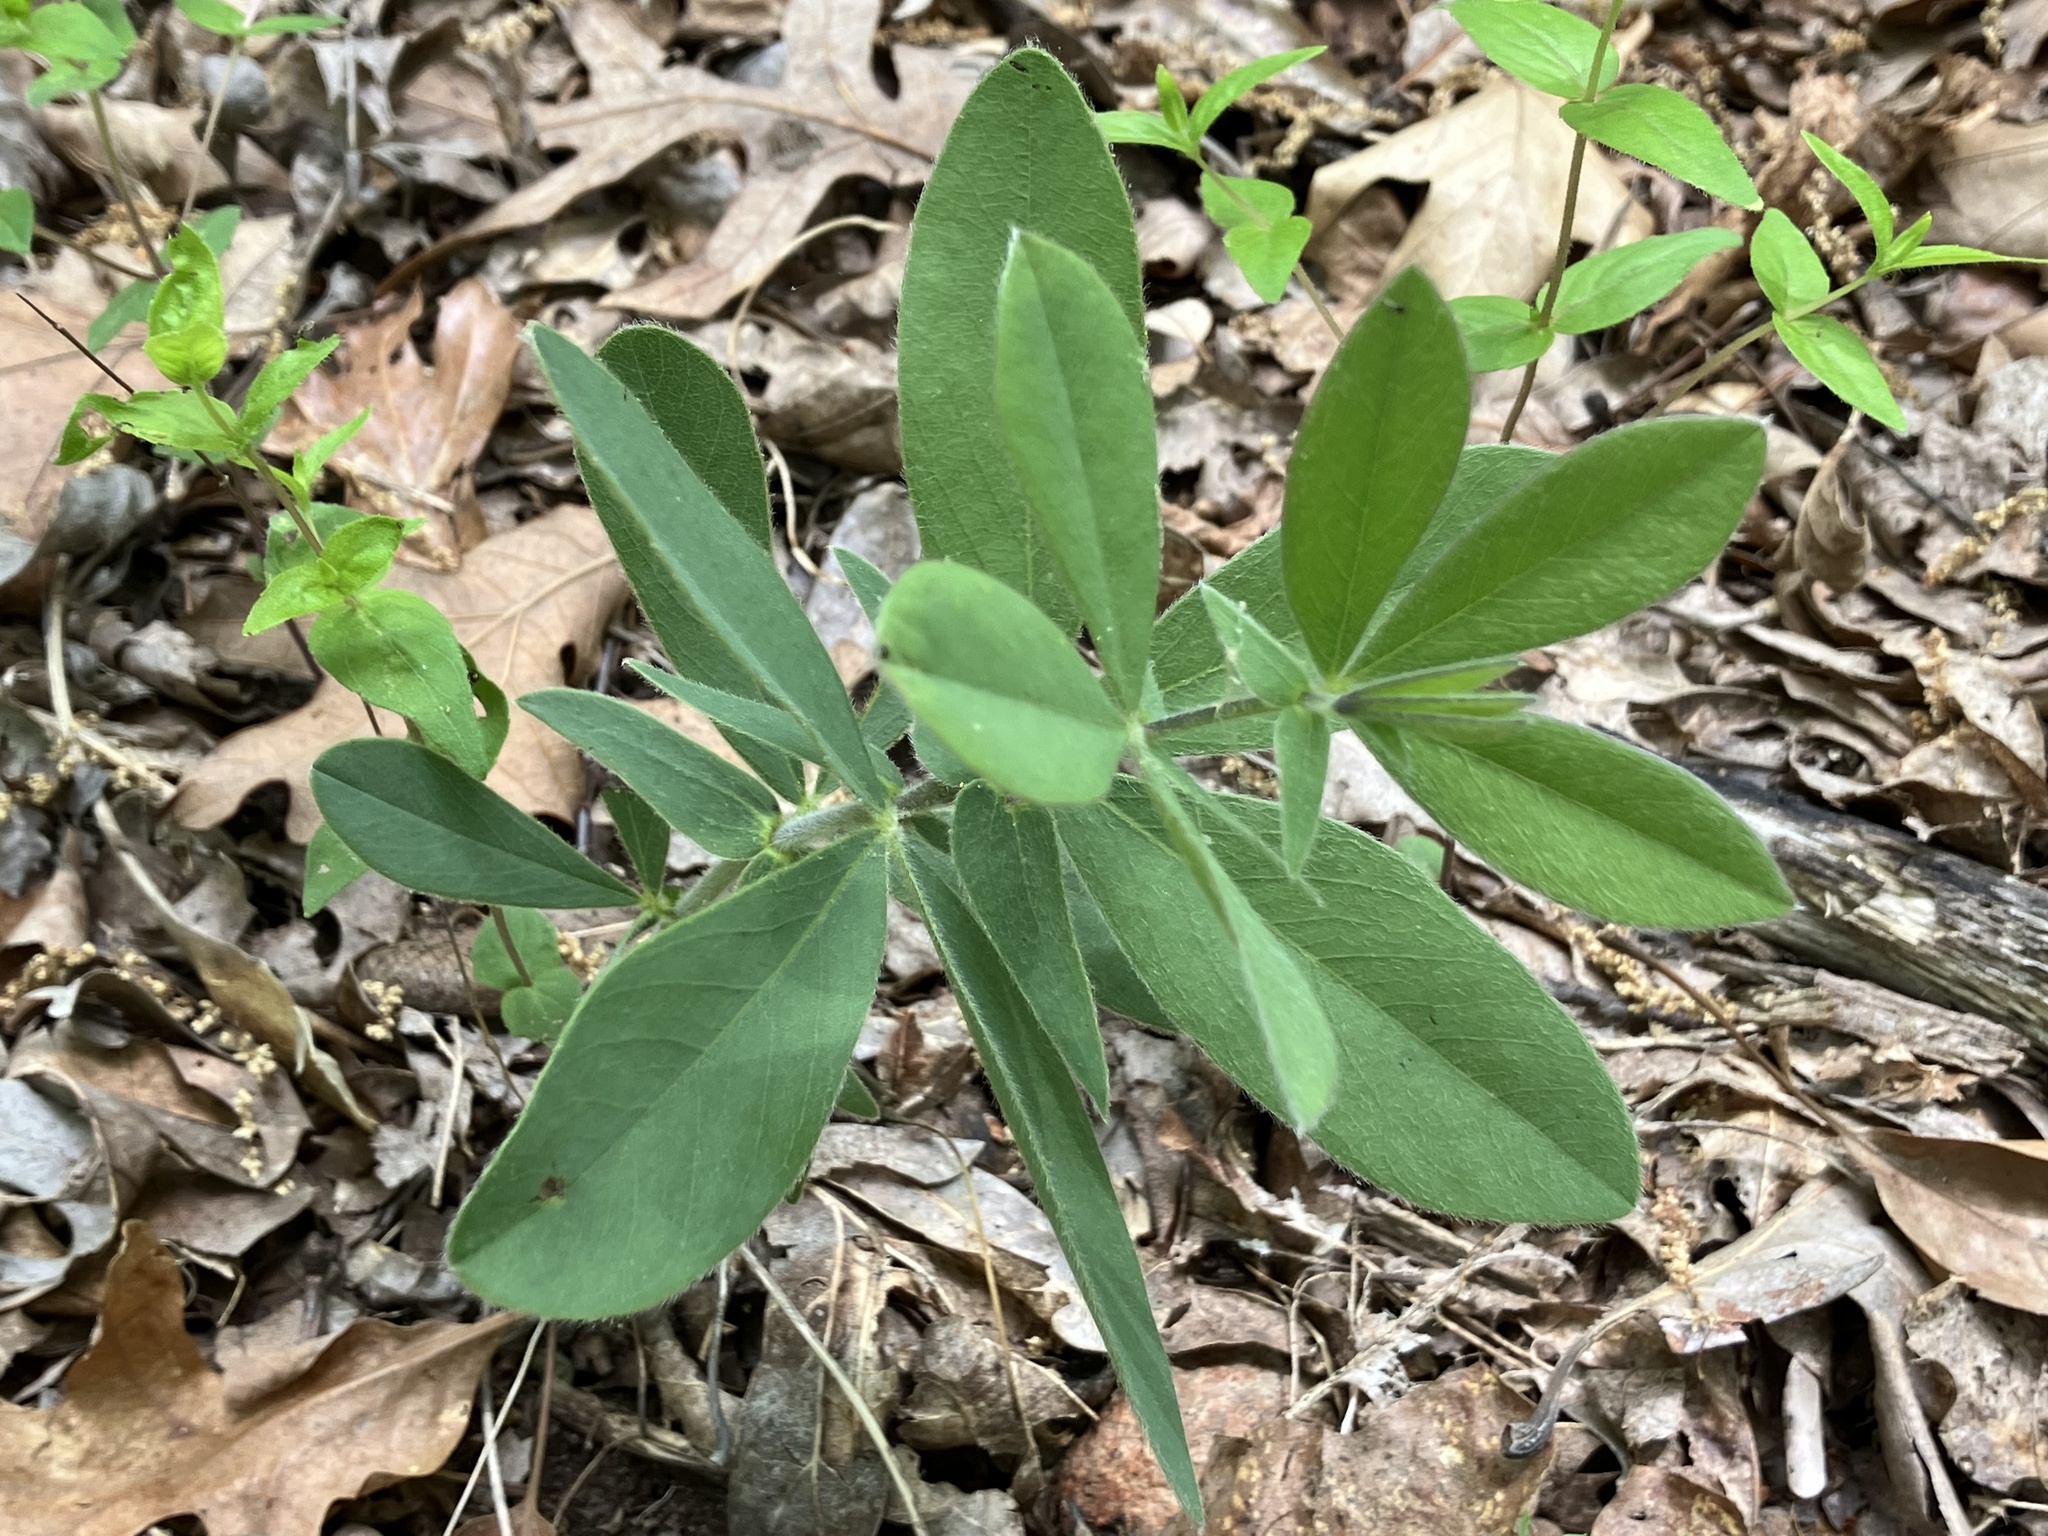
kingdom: Plantae
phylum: Tracheophyta
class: Magnoliopsida
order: Fabales
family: Fabaceae
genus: Baptisia
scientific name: Baptisia bracteata
